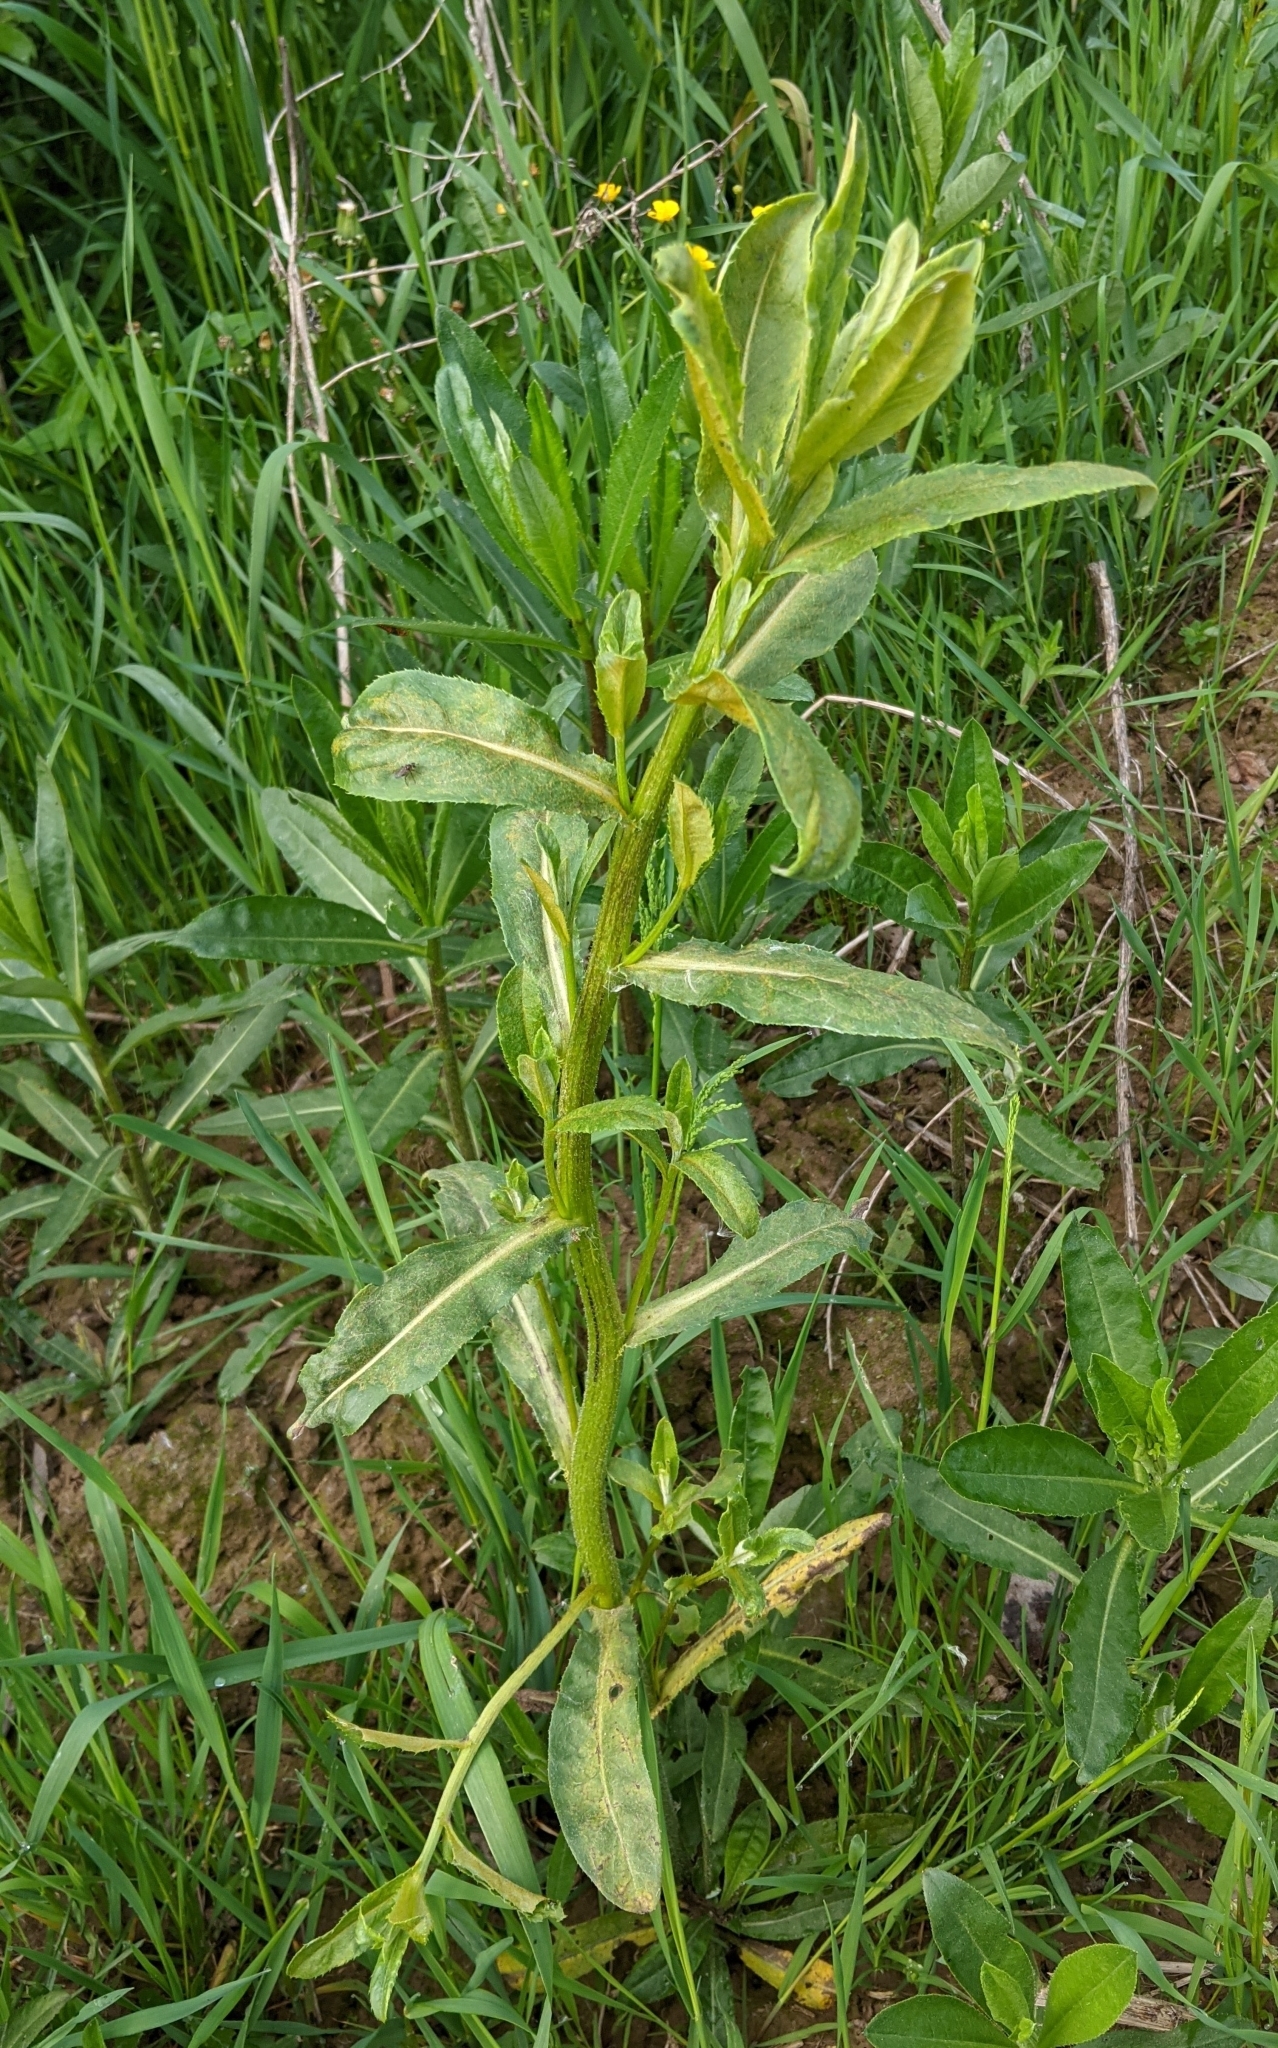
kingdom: Plantae
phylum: Tracheophyta
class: Magnoliopsida
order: Asterales
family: Asteraceae
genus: Cirsium
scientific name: Cirsium arvense
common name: Creeping thistle
